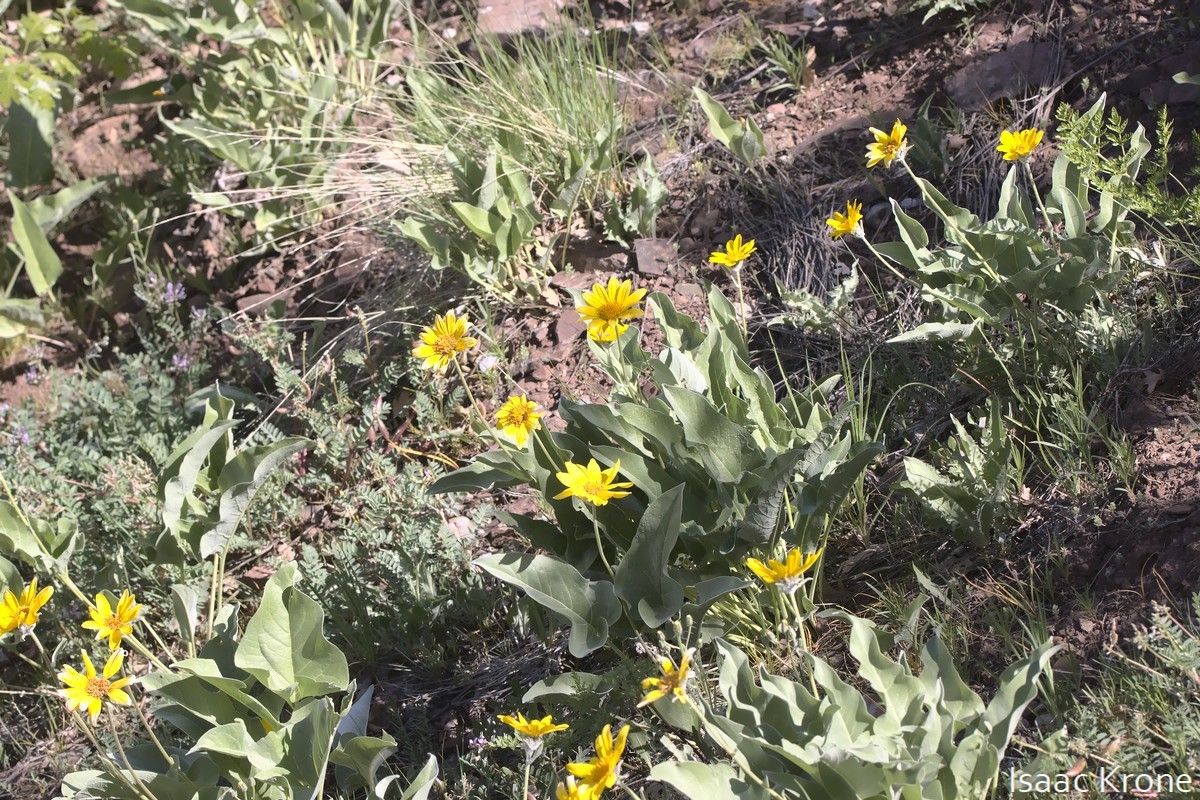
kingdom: Plantae
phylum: Tracheophyta
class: Magnoliopsida
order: Asterales
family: Asteraceae
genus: Wyethia
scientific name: Wyethia sagittata
